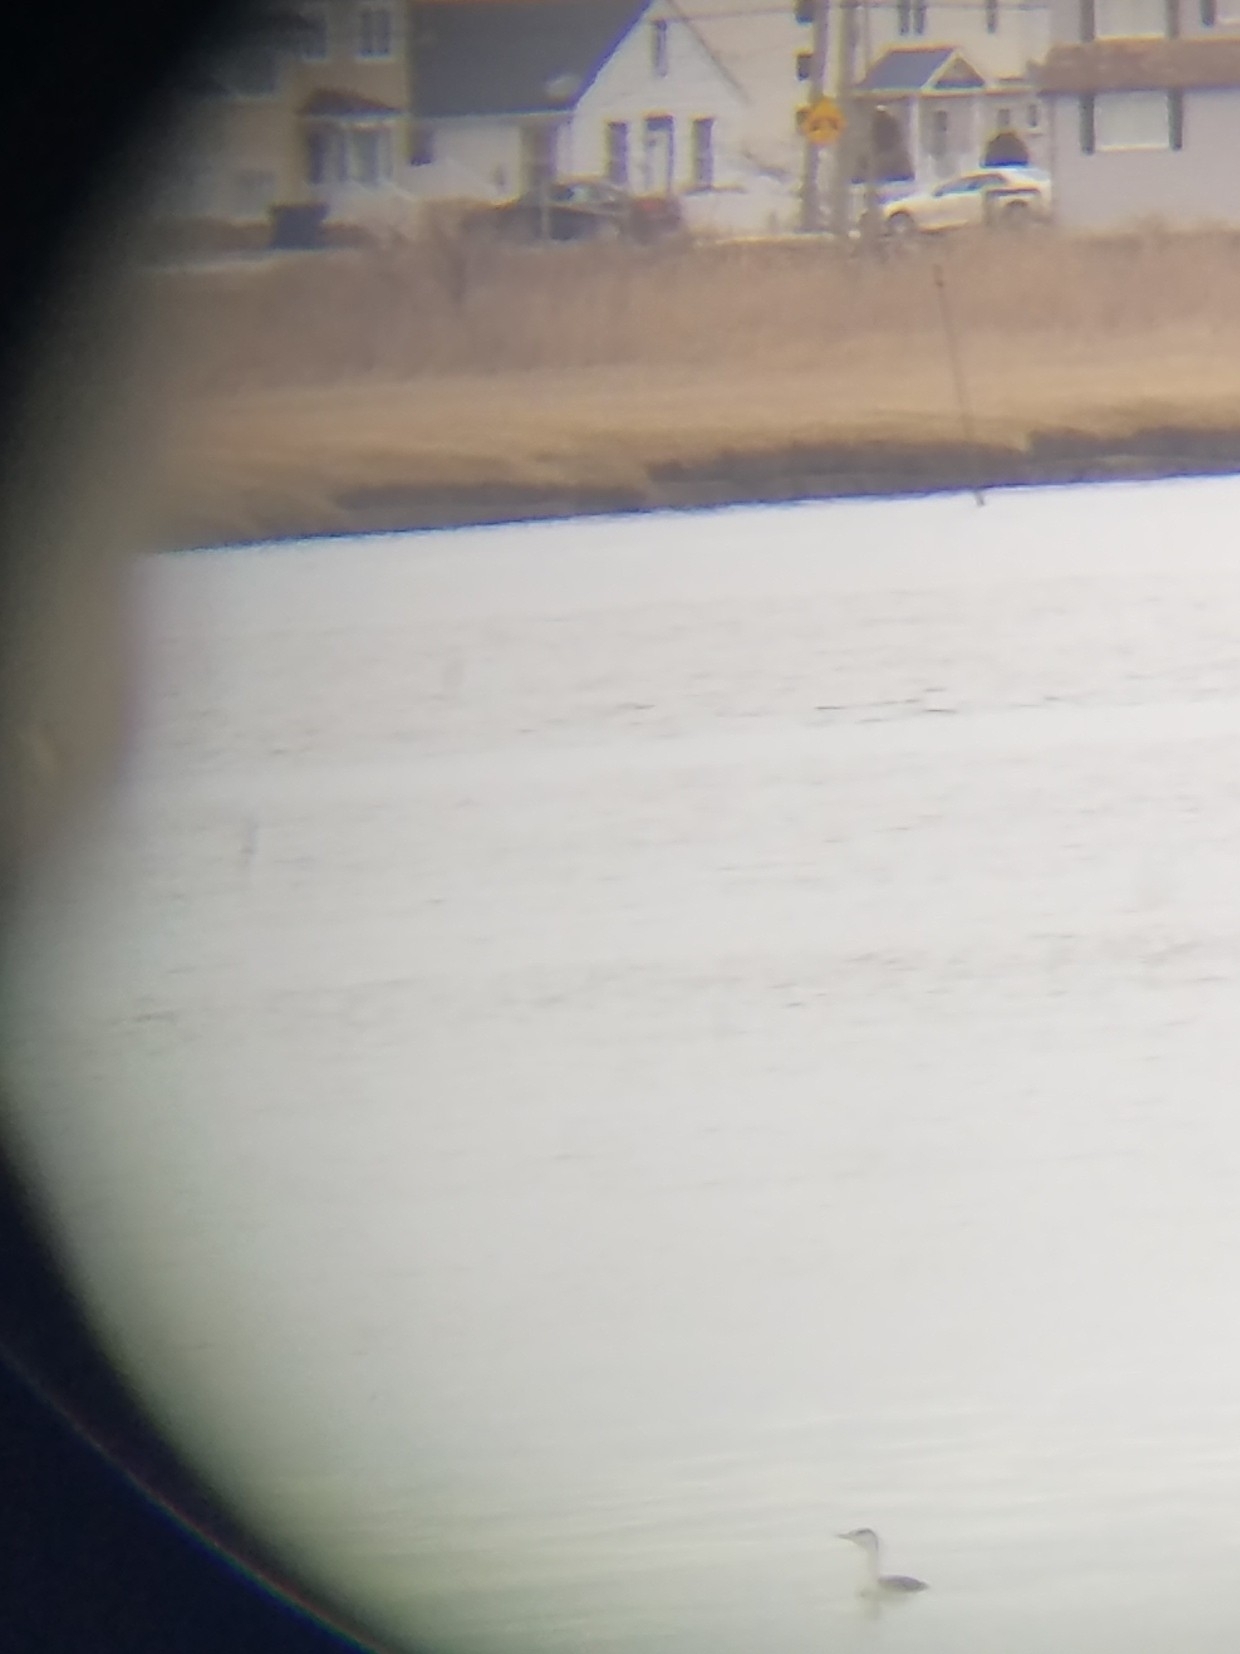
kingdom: Animalia
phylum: Chordata
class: Aves
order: Gaviiformes
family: Gaviidae
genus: Gavia
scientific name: Gavia stellata
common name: Red-throated loon
